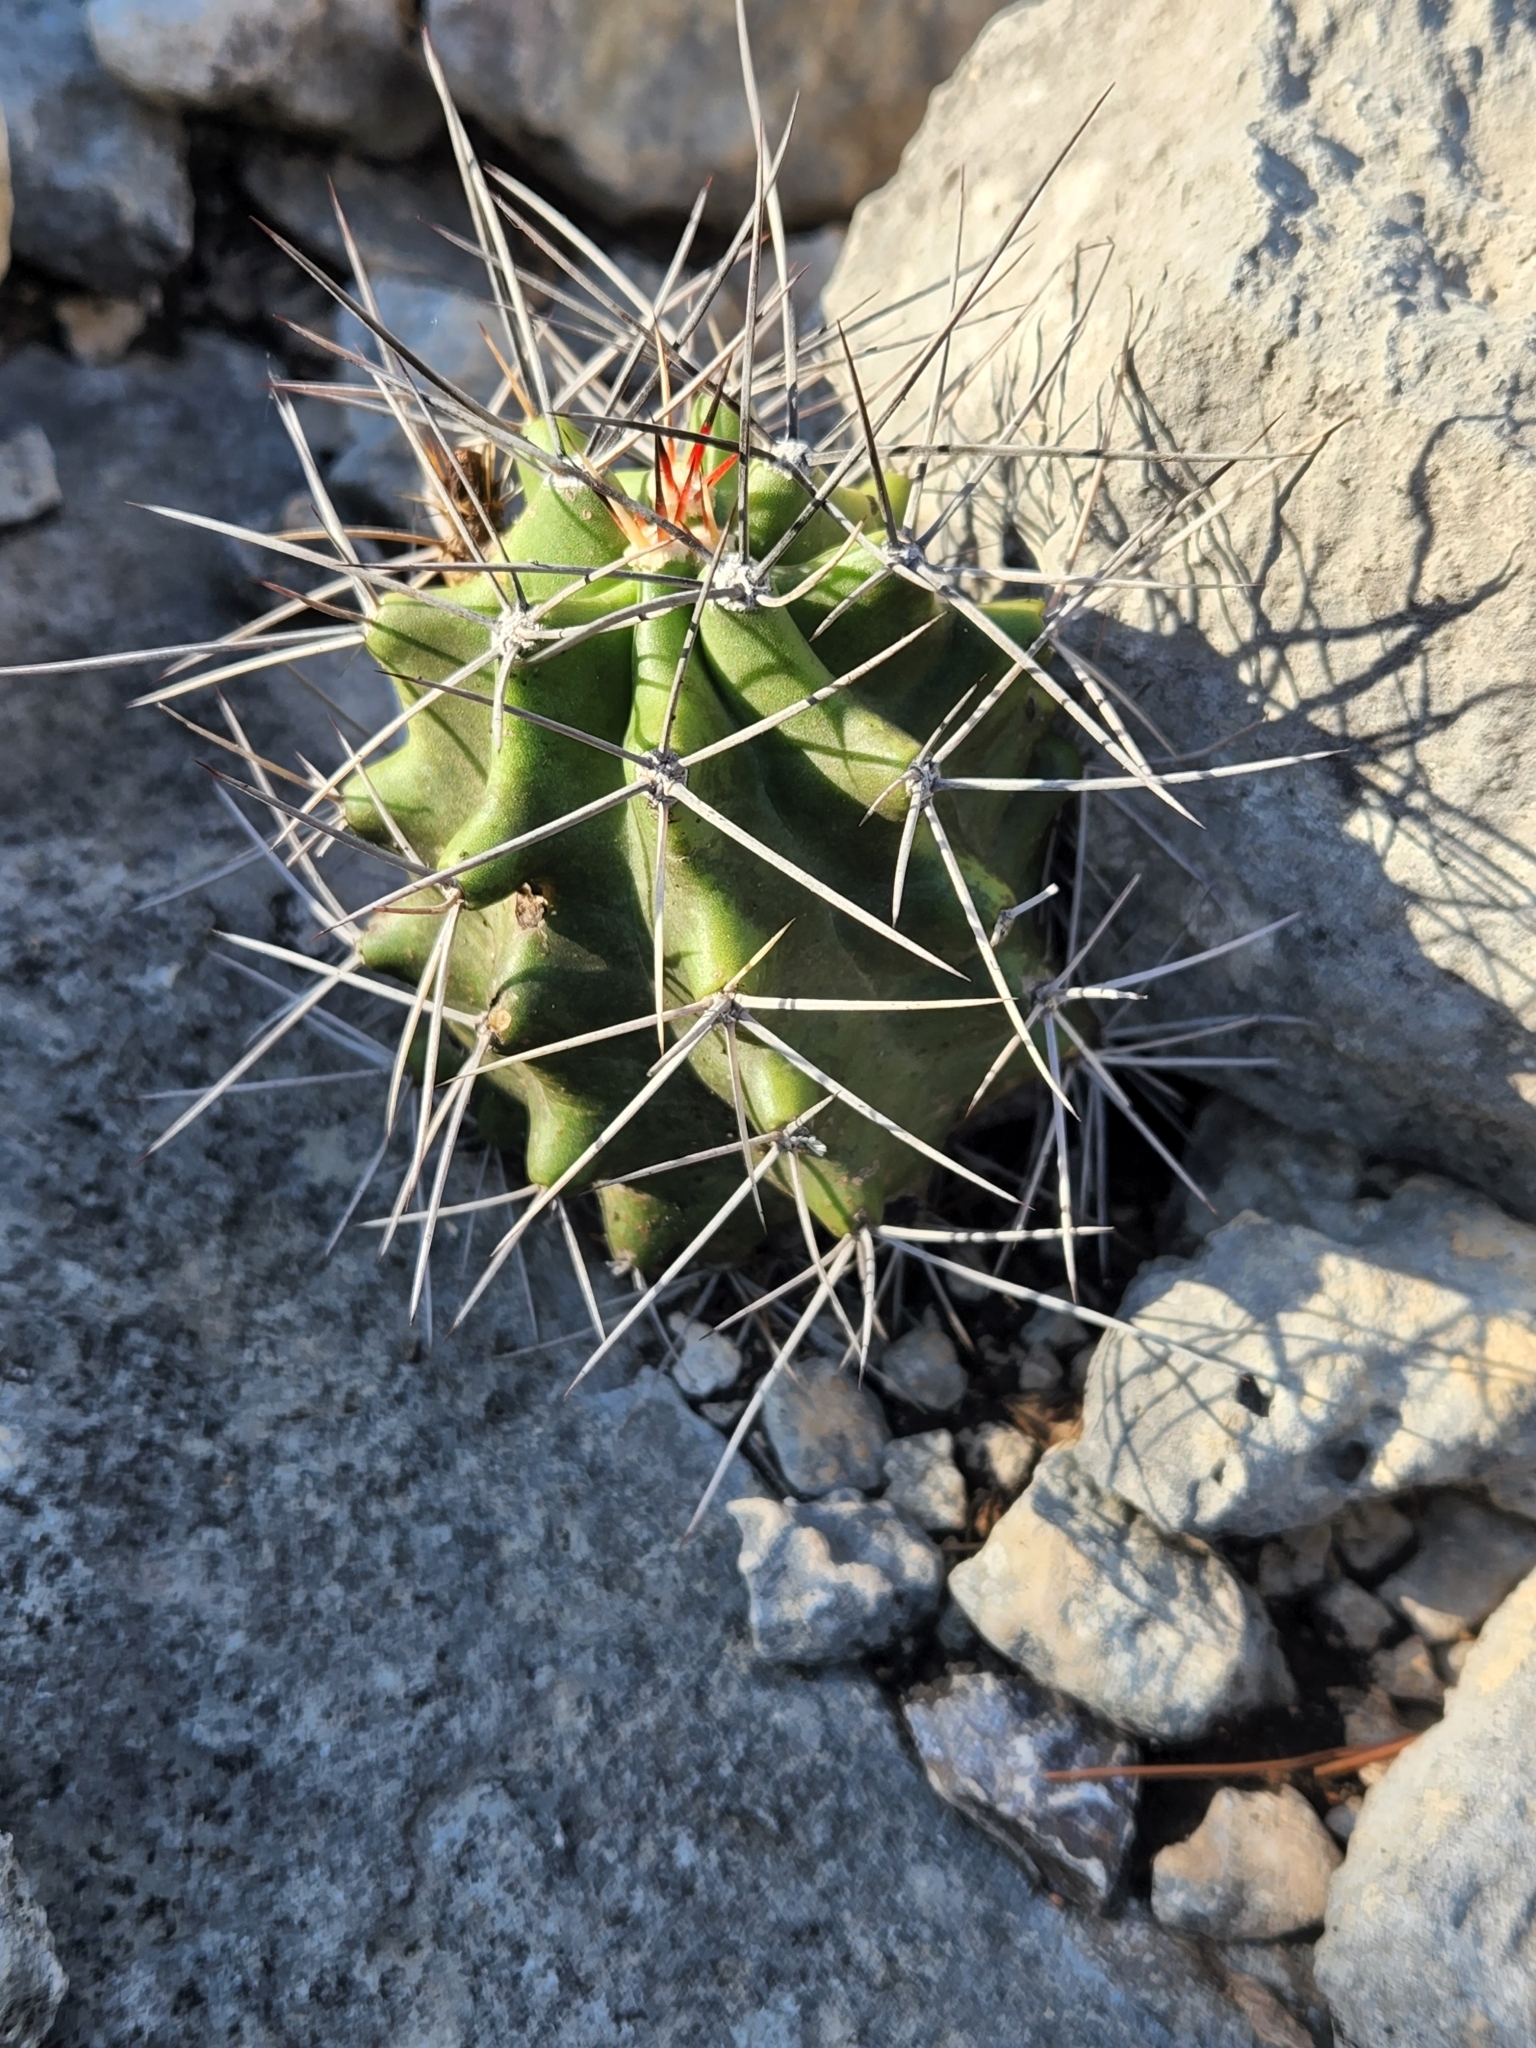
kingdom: Plantae
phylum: Tracheophyta
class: Magnoliopsida
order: Caryophyllales
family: Cactaceae
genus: Echinocereus
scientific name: Echinocereus coccineus
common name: Scarlet hedgehog cactus
